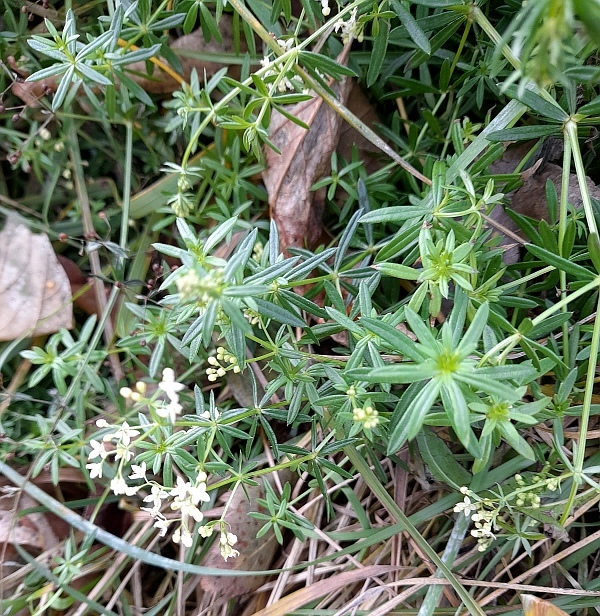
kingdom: Plantae
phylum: Tracheophyta
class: Magnoliopsida
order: Gentianales
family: Rubiaceae
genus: Galium
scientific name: Galium mollugo
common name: Hedge bedstraw
